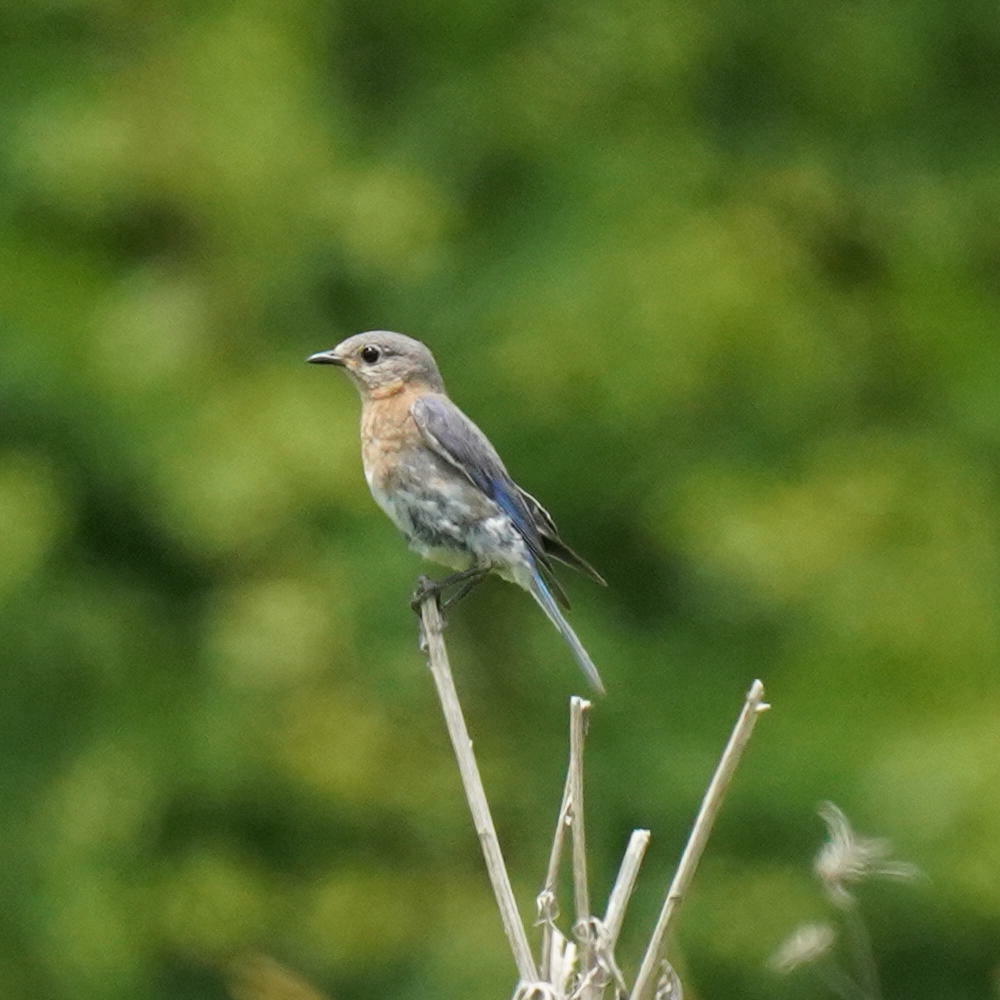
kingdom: Animalia
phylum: Chordata
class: Aves
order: Passeriformes
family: Turdidae
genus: Sialia
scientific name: Sialia sialis
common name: Eastern bluebird
